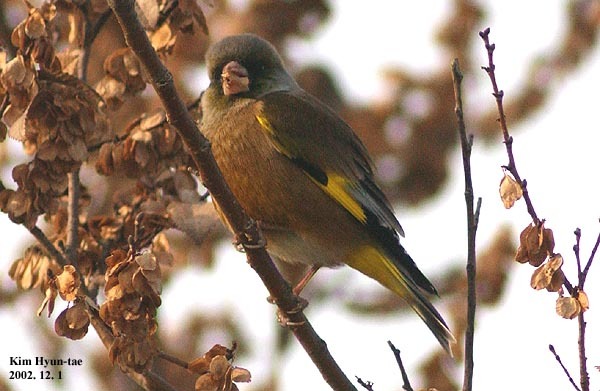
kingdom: Plantae
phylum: Tracheophyta
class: Liliopsida
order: Poales
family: Poaceae
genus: Chloris
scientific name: Chloris sinica
